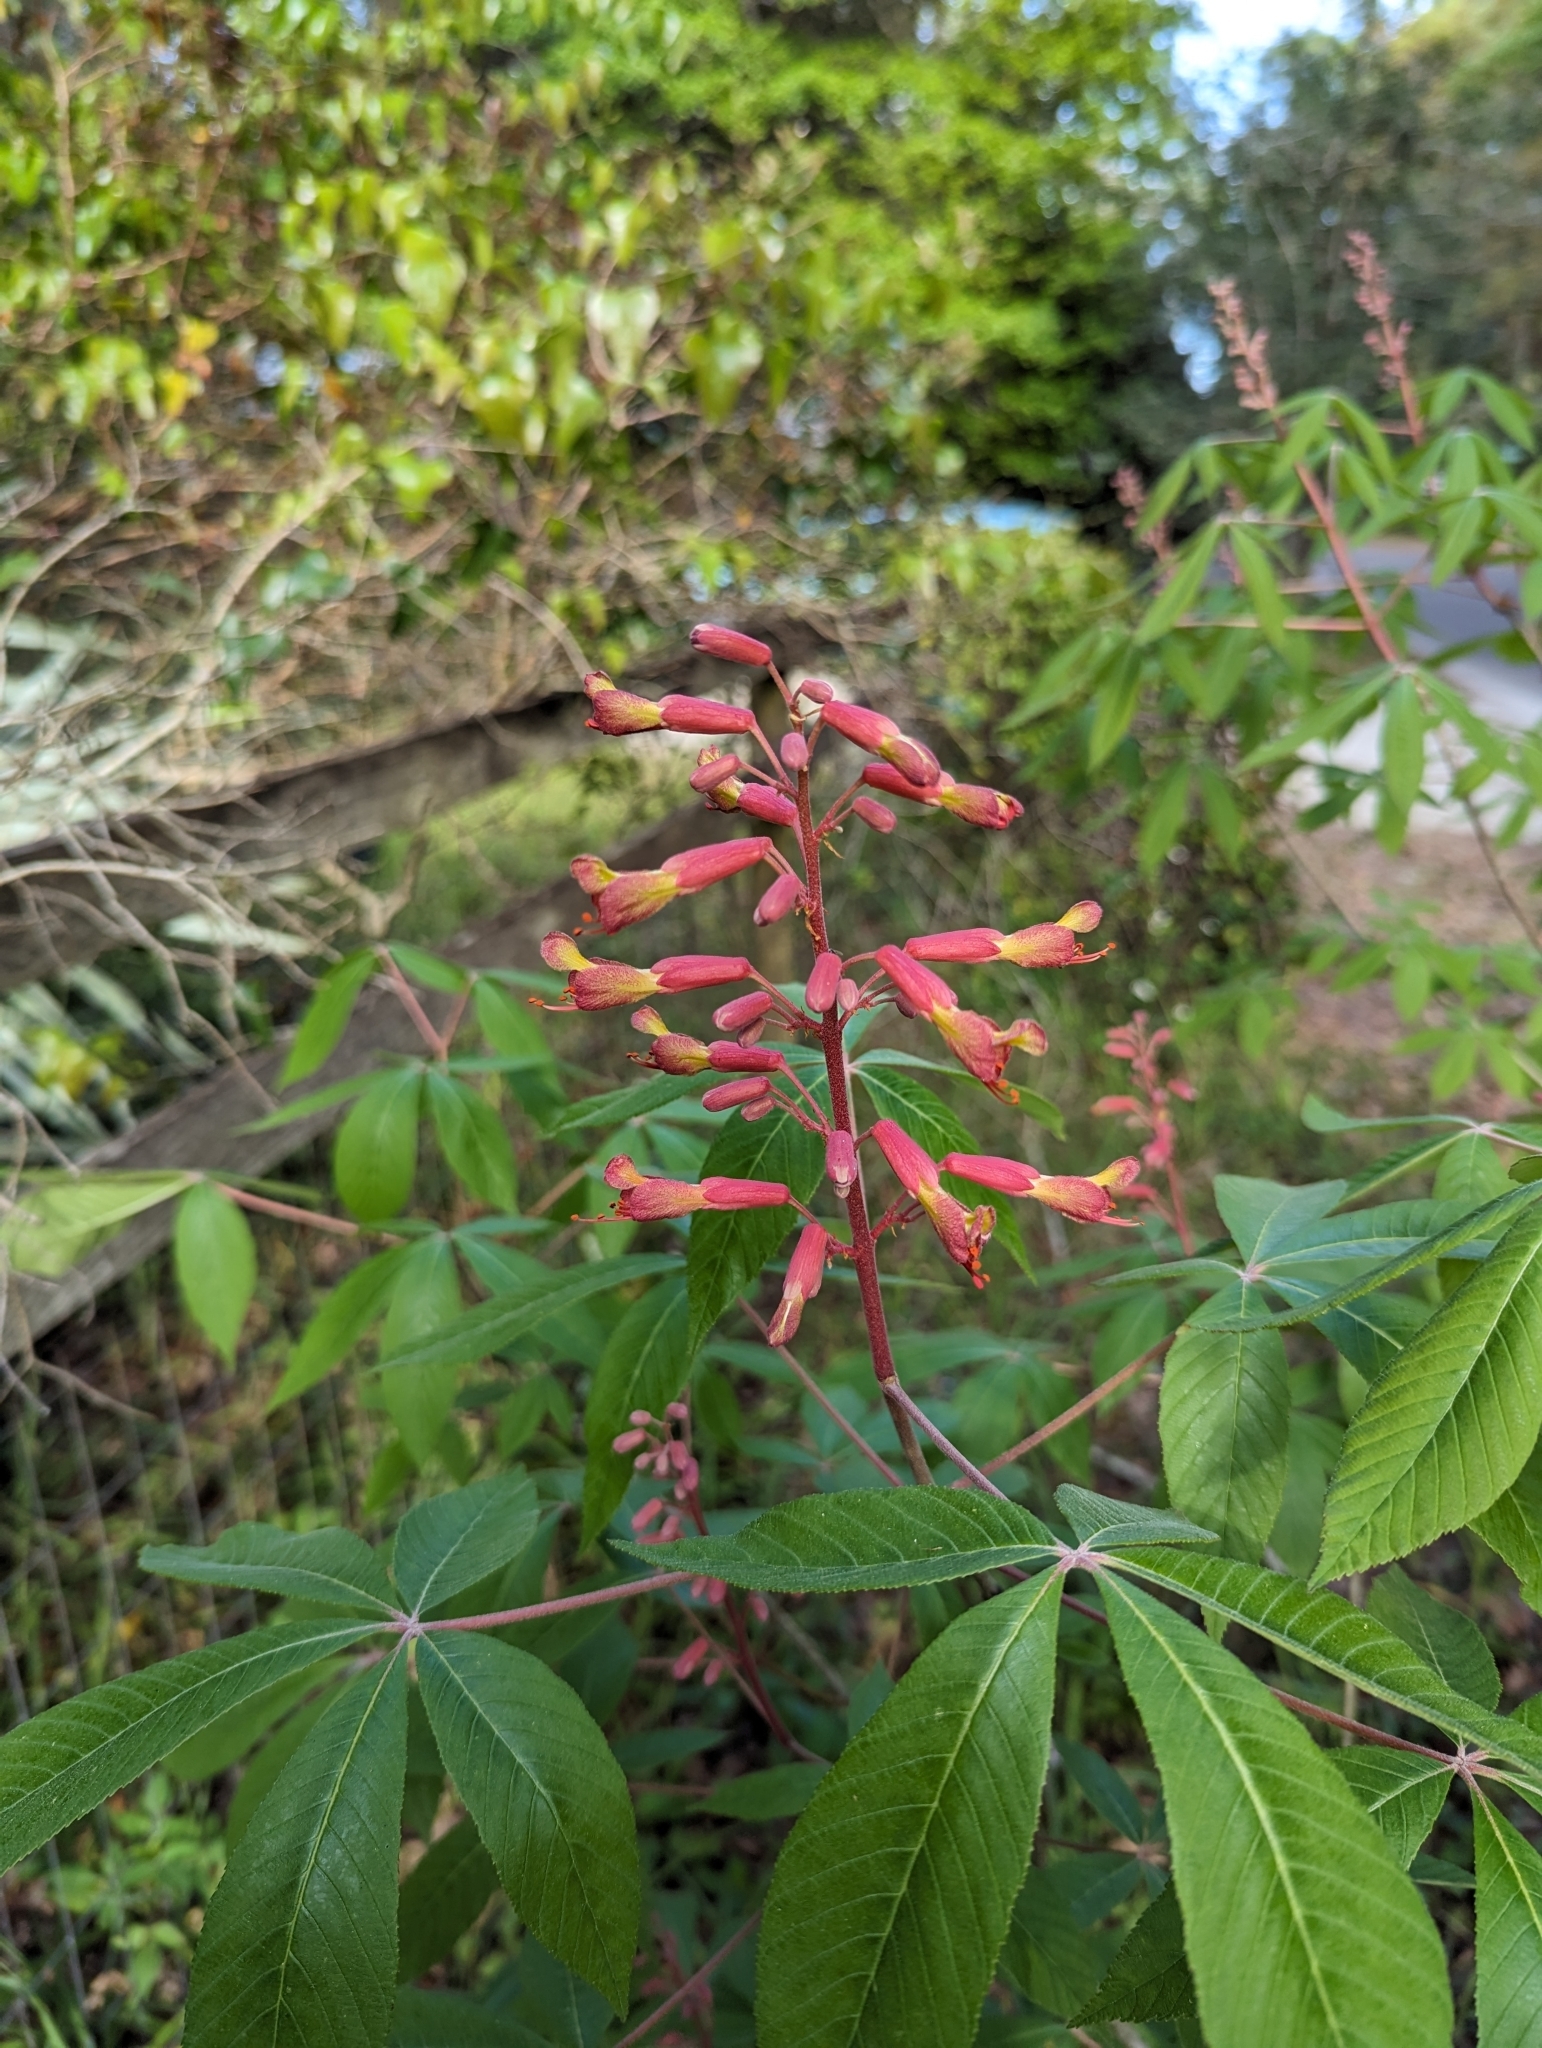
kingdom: Plantae
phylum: Tracheophyta
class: Magnoliopsida
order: Sapindales
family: Sapindaceae
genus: Aesculus
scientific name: Aesculus pavia
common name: Red buckeye
